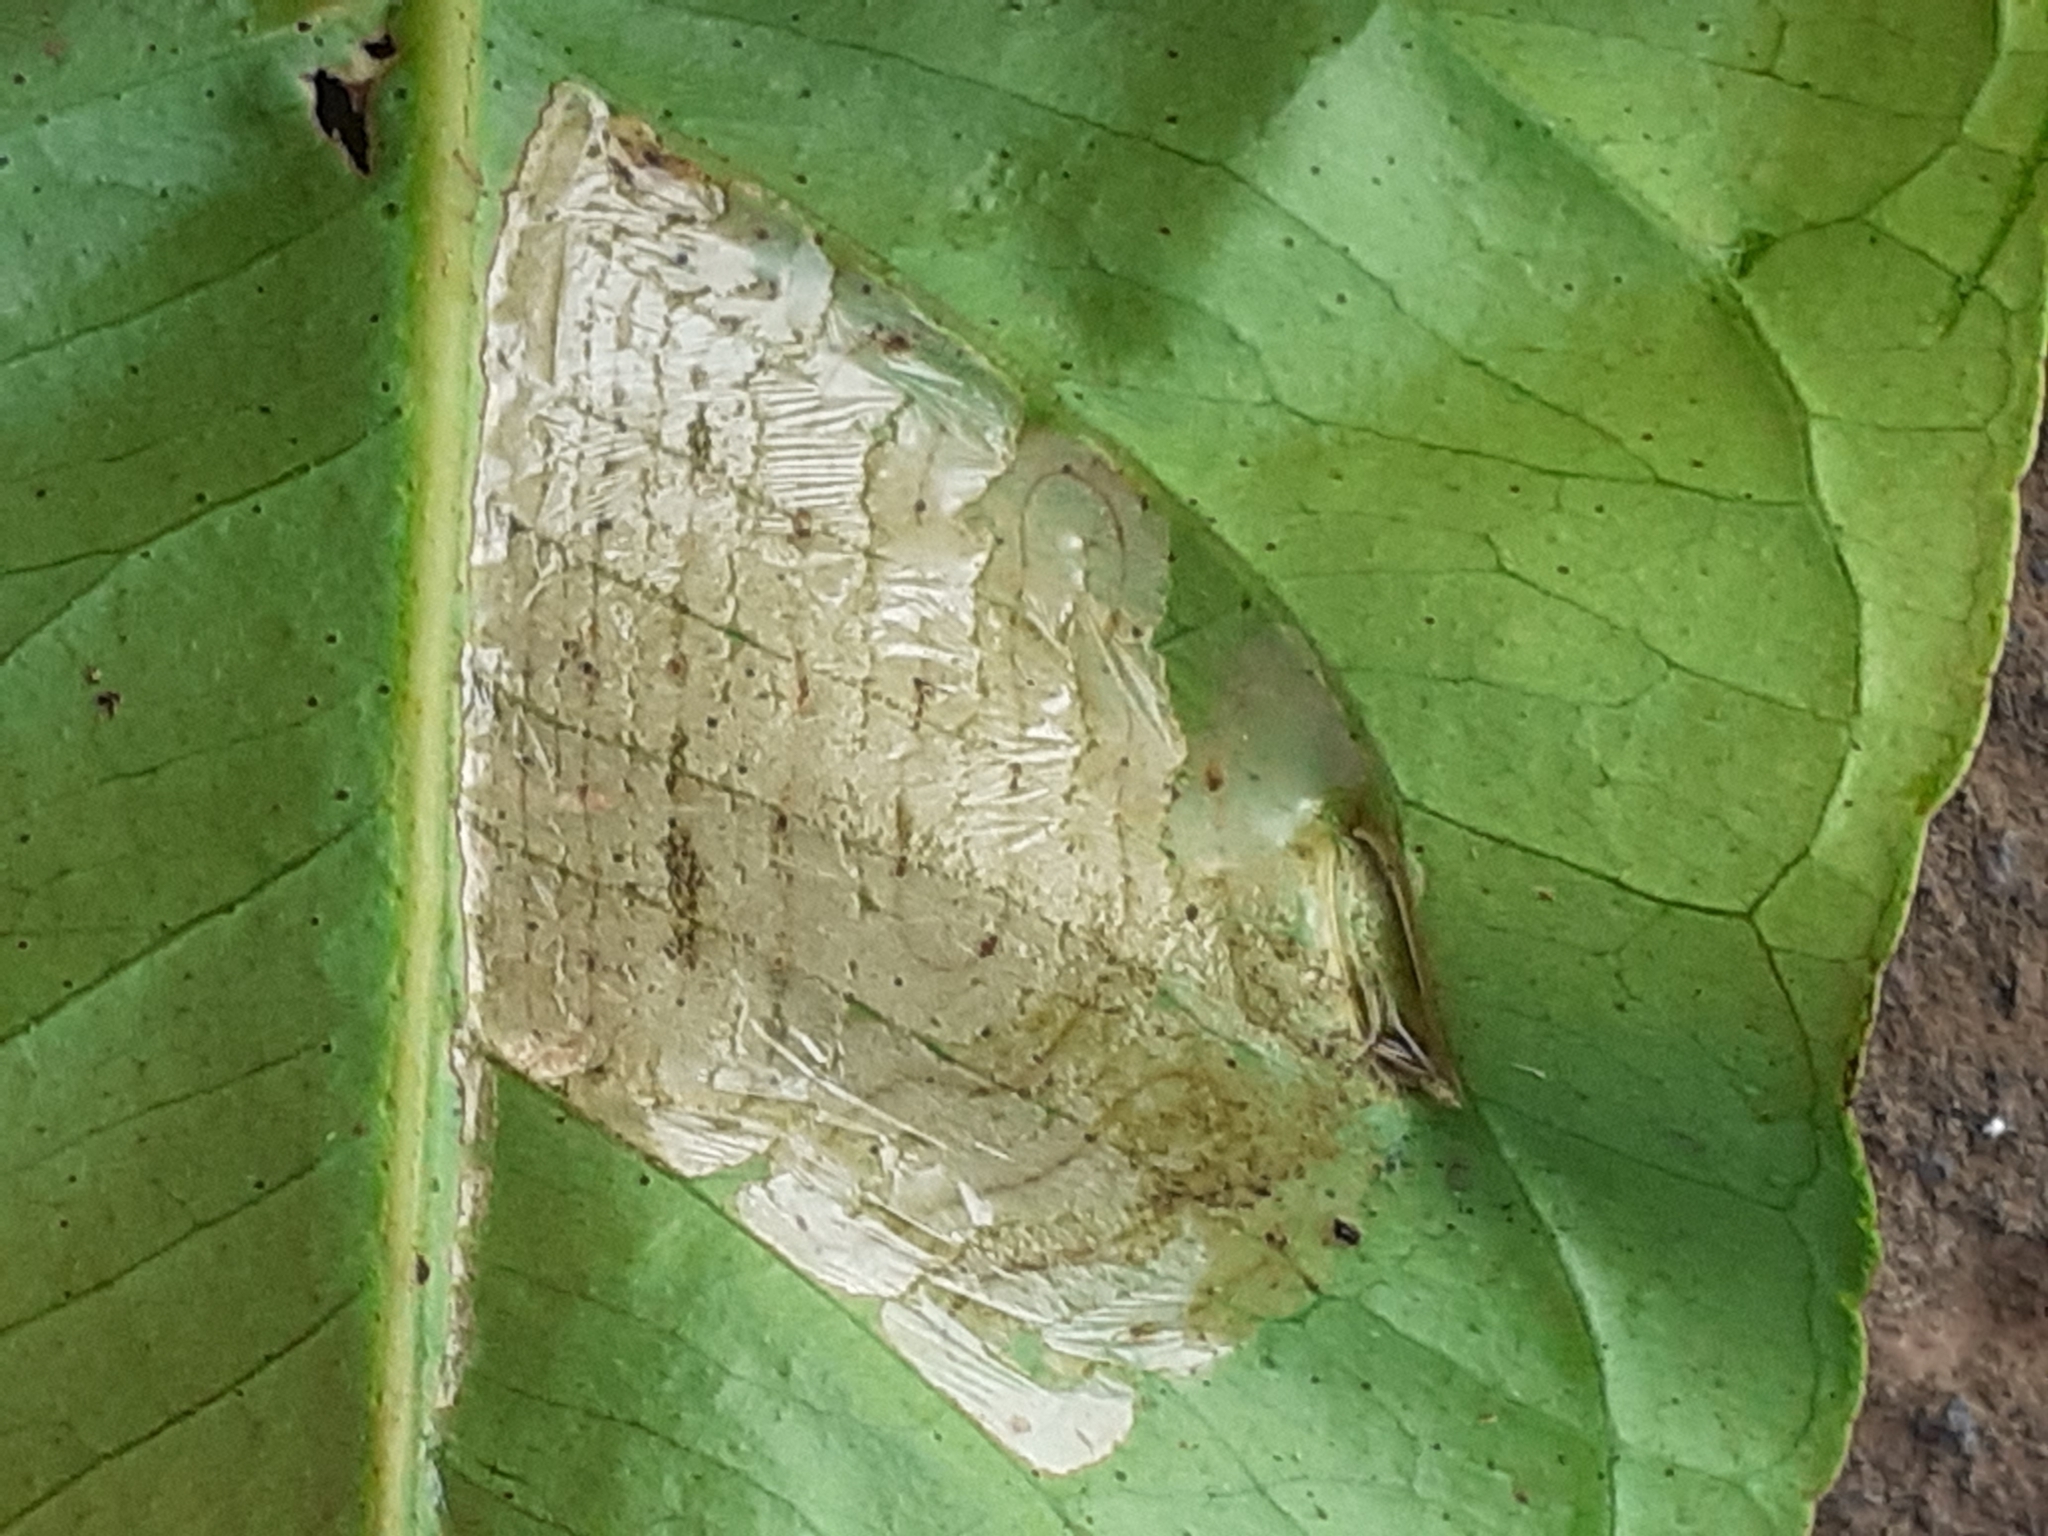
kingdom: Animalia
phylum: Arthropoda
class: Insecta
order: Lepidoptera
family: Gracillariidae
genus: Phyllocnistis
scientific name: Phyllocnistis citrella
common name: Citrus leafminer
